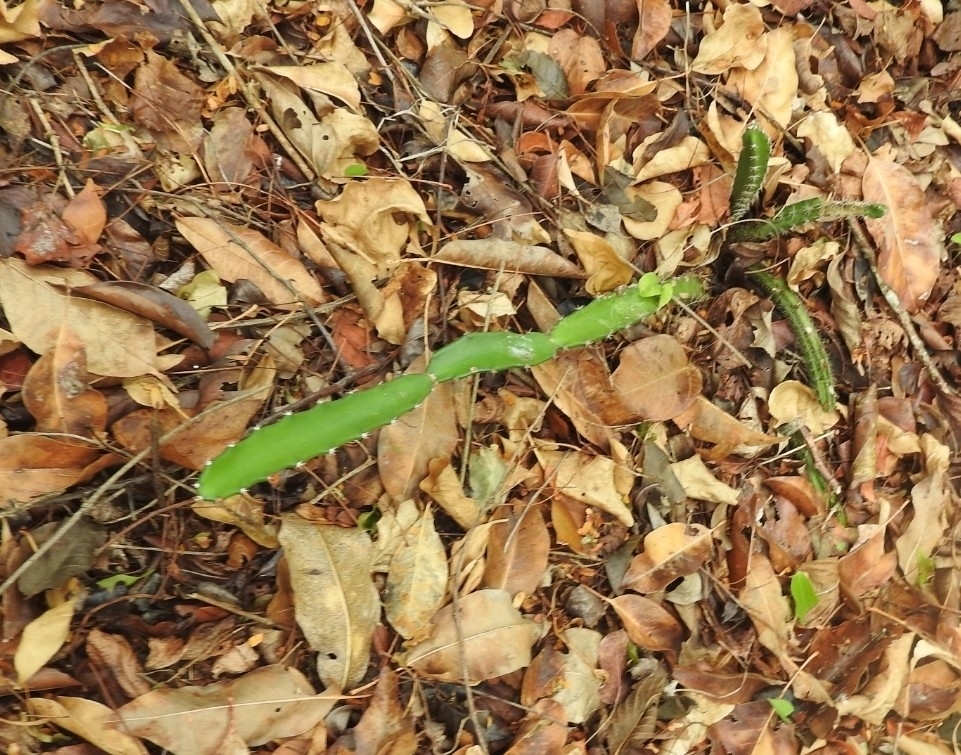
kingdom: Plantae
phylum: Tracheophyta
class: Magnoliopsida
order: Caryophyllales
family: Cactaceae
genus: Acanthocereus
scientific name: Acanthocereus tetragonus
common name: Triangle cactus
